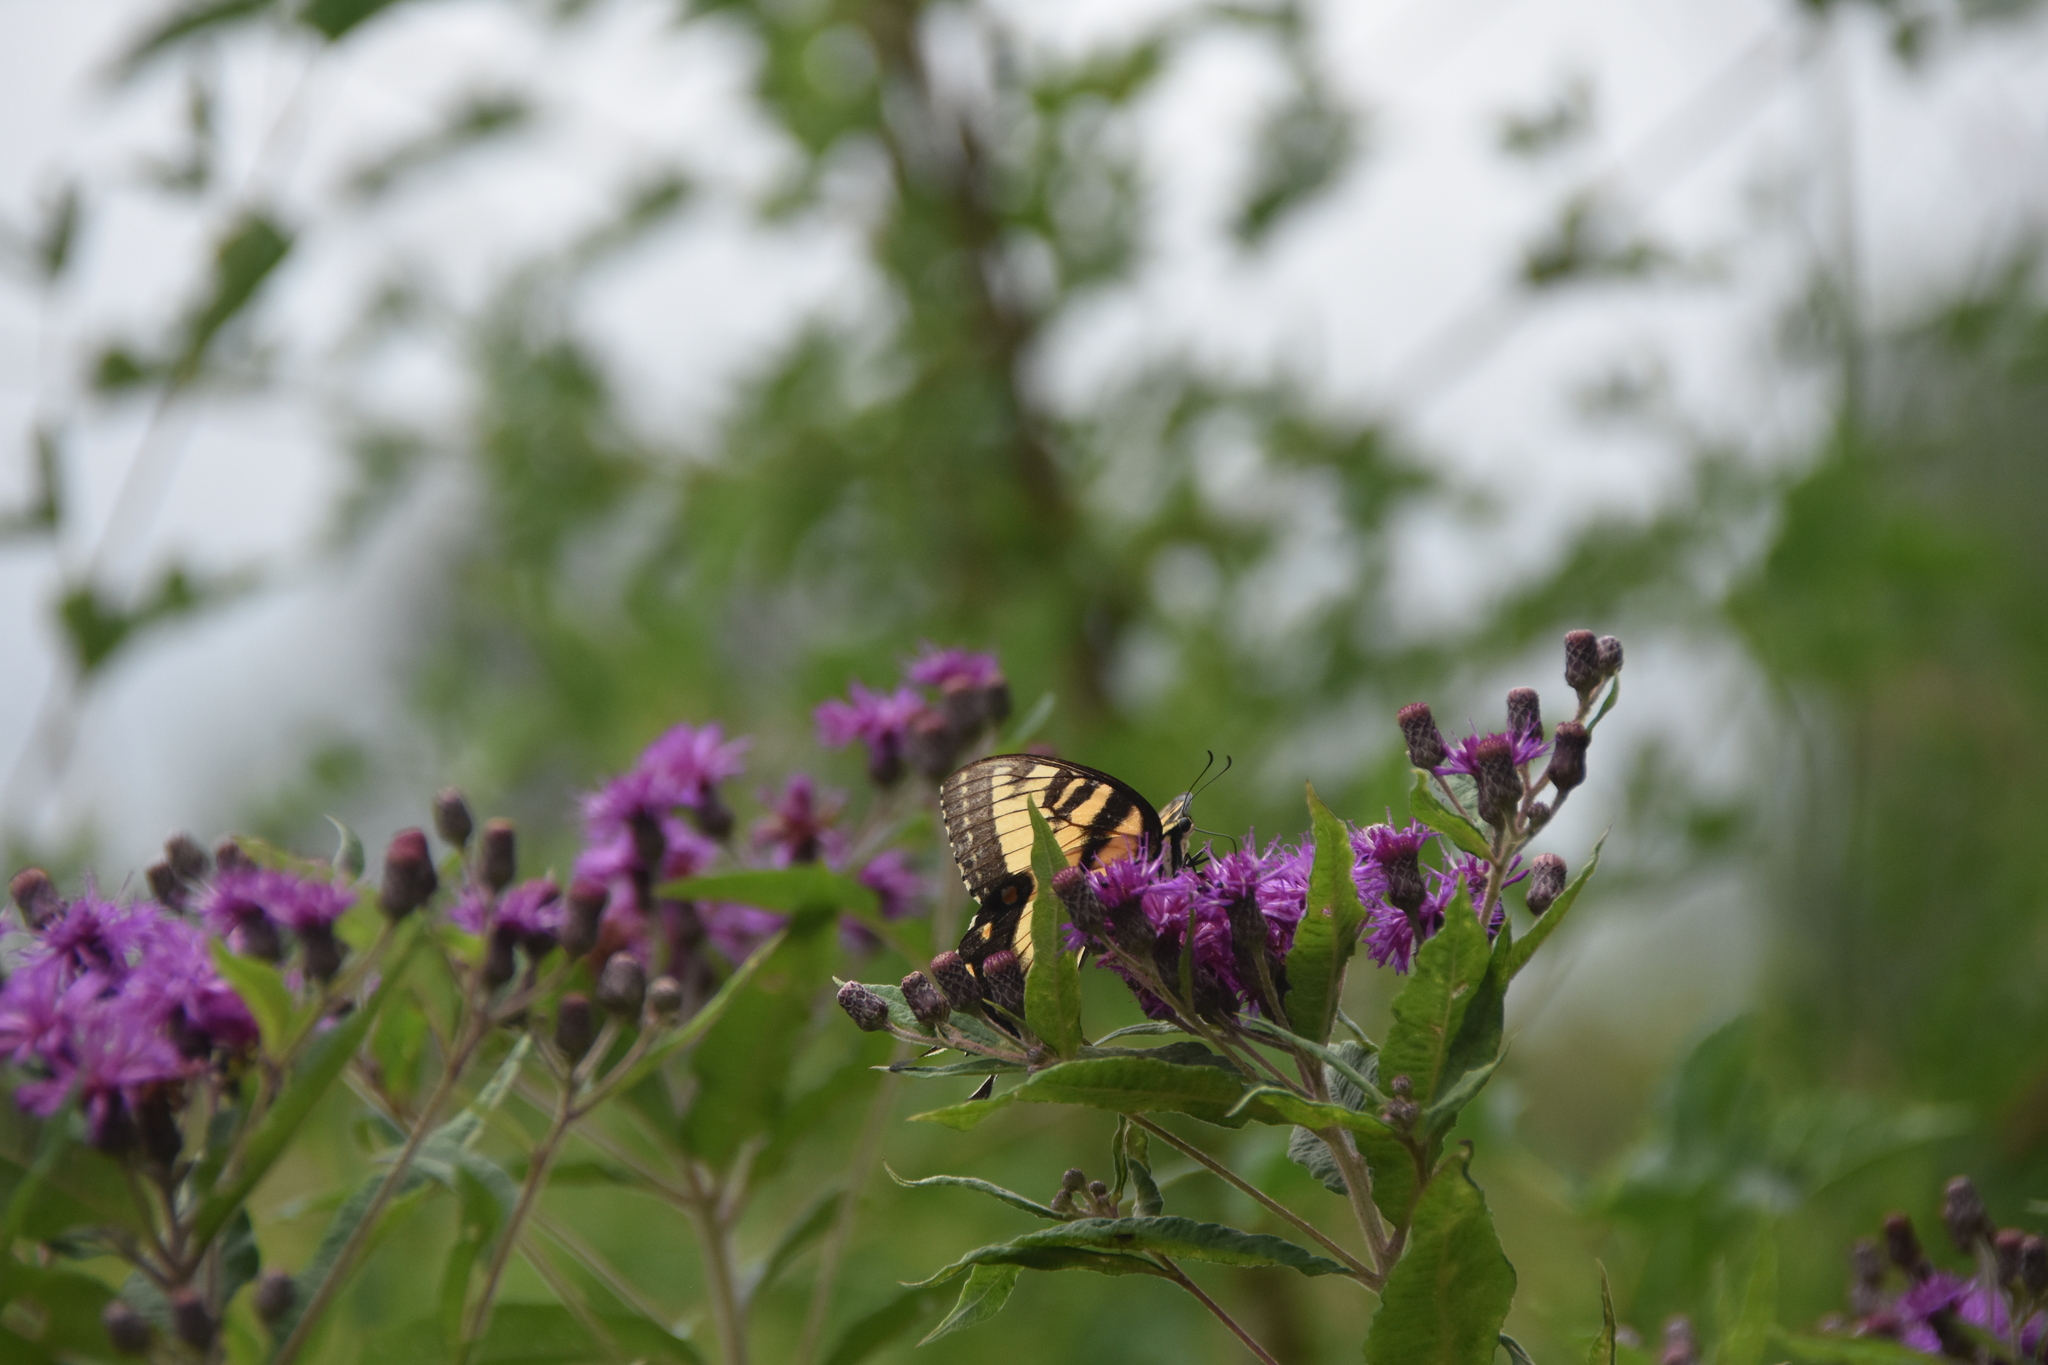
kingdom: Animalia
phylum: Arthropoda
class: Insecta
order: Lepidoptera
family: Papilionidae
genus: Papilio
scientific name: Papilio glaucus
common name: Tiger swallowtail
